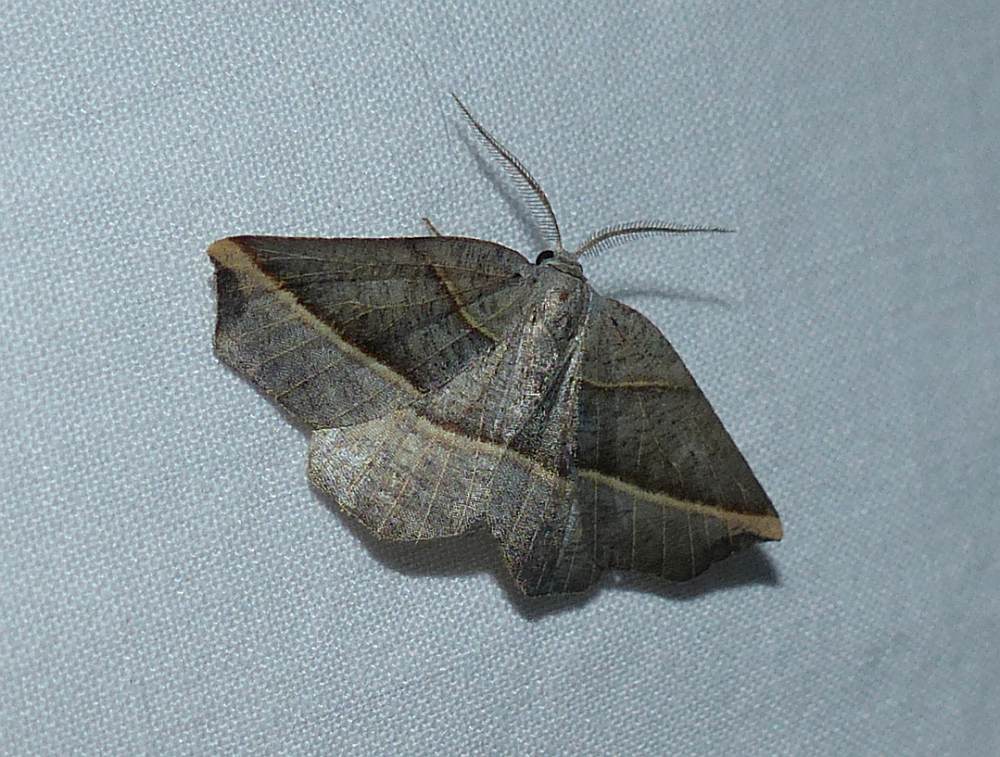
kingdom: Animalia
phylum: Arthropoda
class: Insecta
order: Lepidoptera
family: Geometridae
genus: Metanema
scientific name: Metanema determinata
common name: Dark metanema
